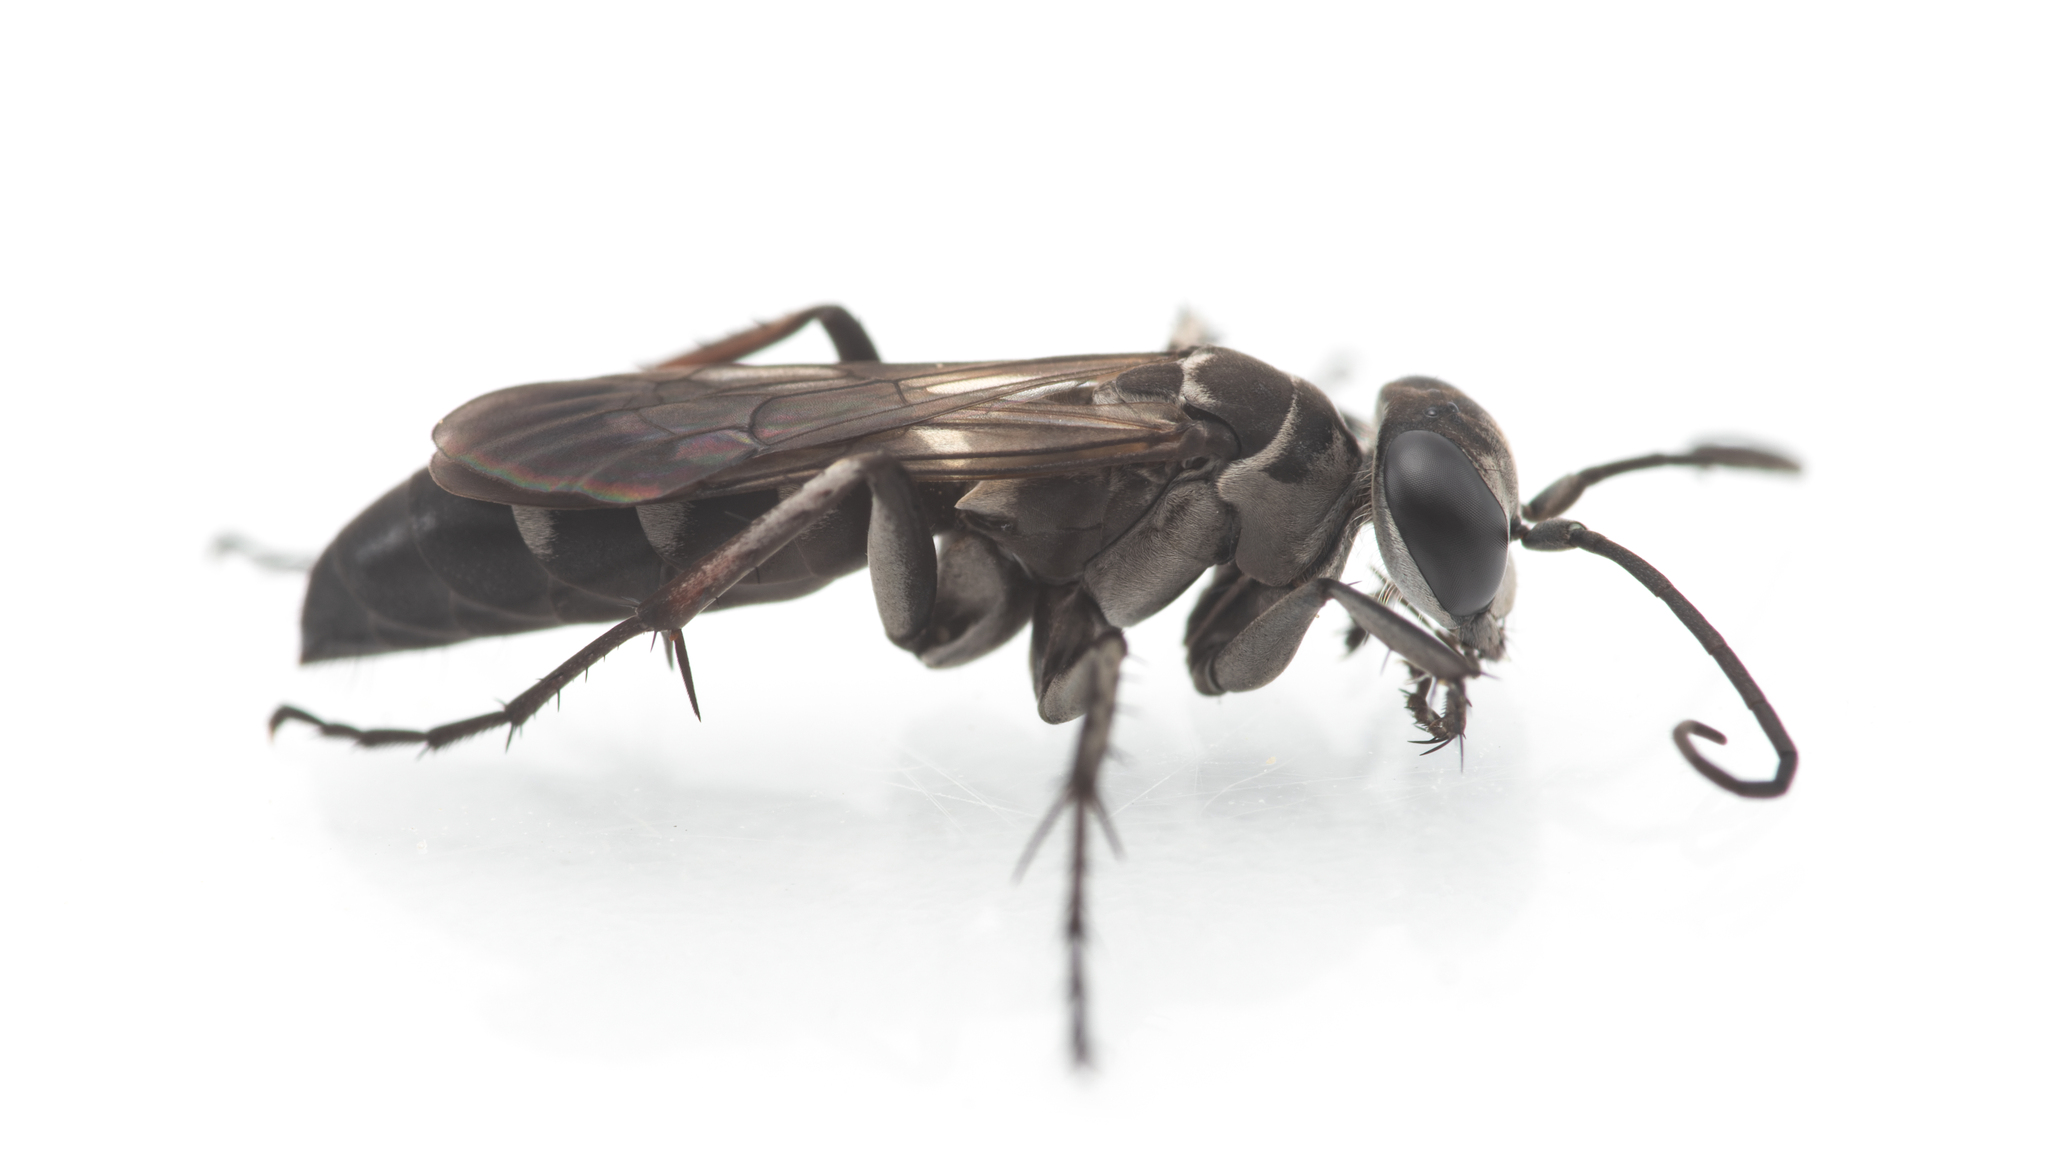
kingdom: Animalia
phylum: Arthropoda
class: Insecta
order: Hymenoptera
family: Pompilidae
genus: Aporinellus
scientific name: Aporinellus sexmaculatus
